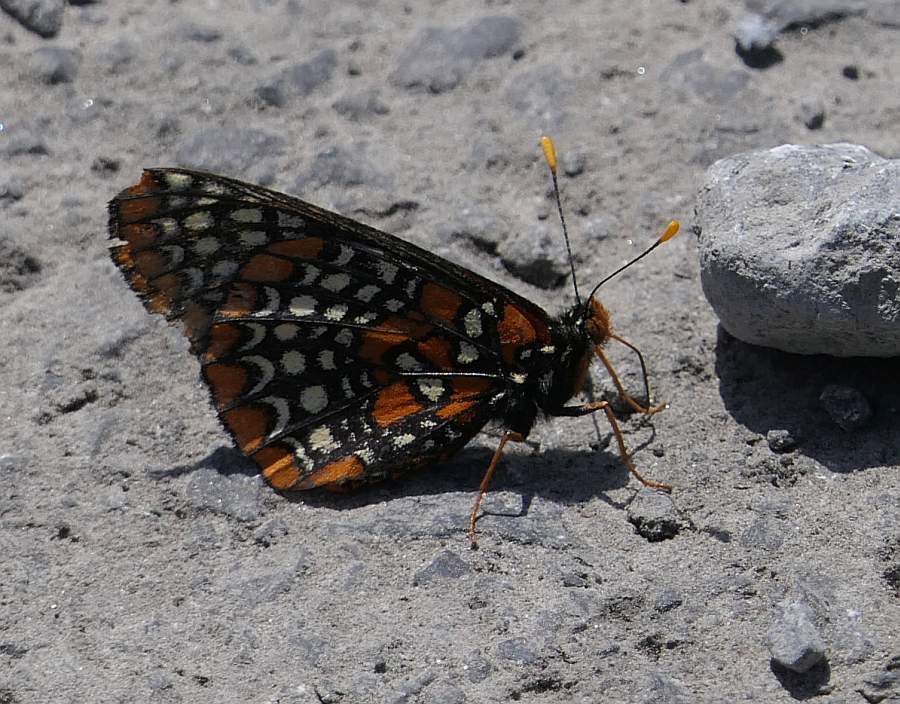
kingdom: Animalia
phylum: Arthropoda
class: Insecta
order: Lepidoptera
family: Nymphalidae
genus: Euphydryas
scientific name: Euphydryas phaeton
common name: Baltimore checkerspot
